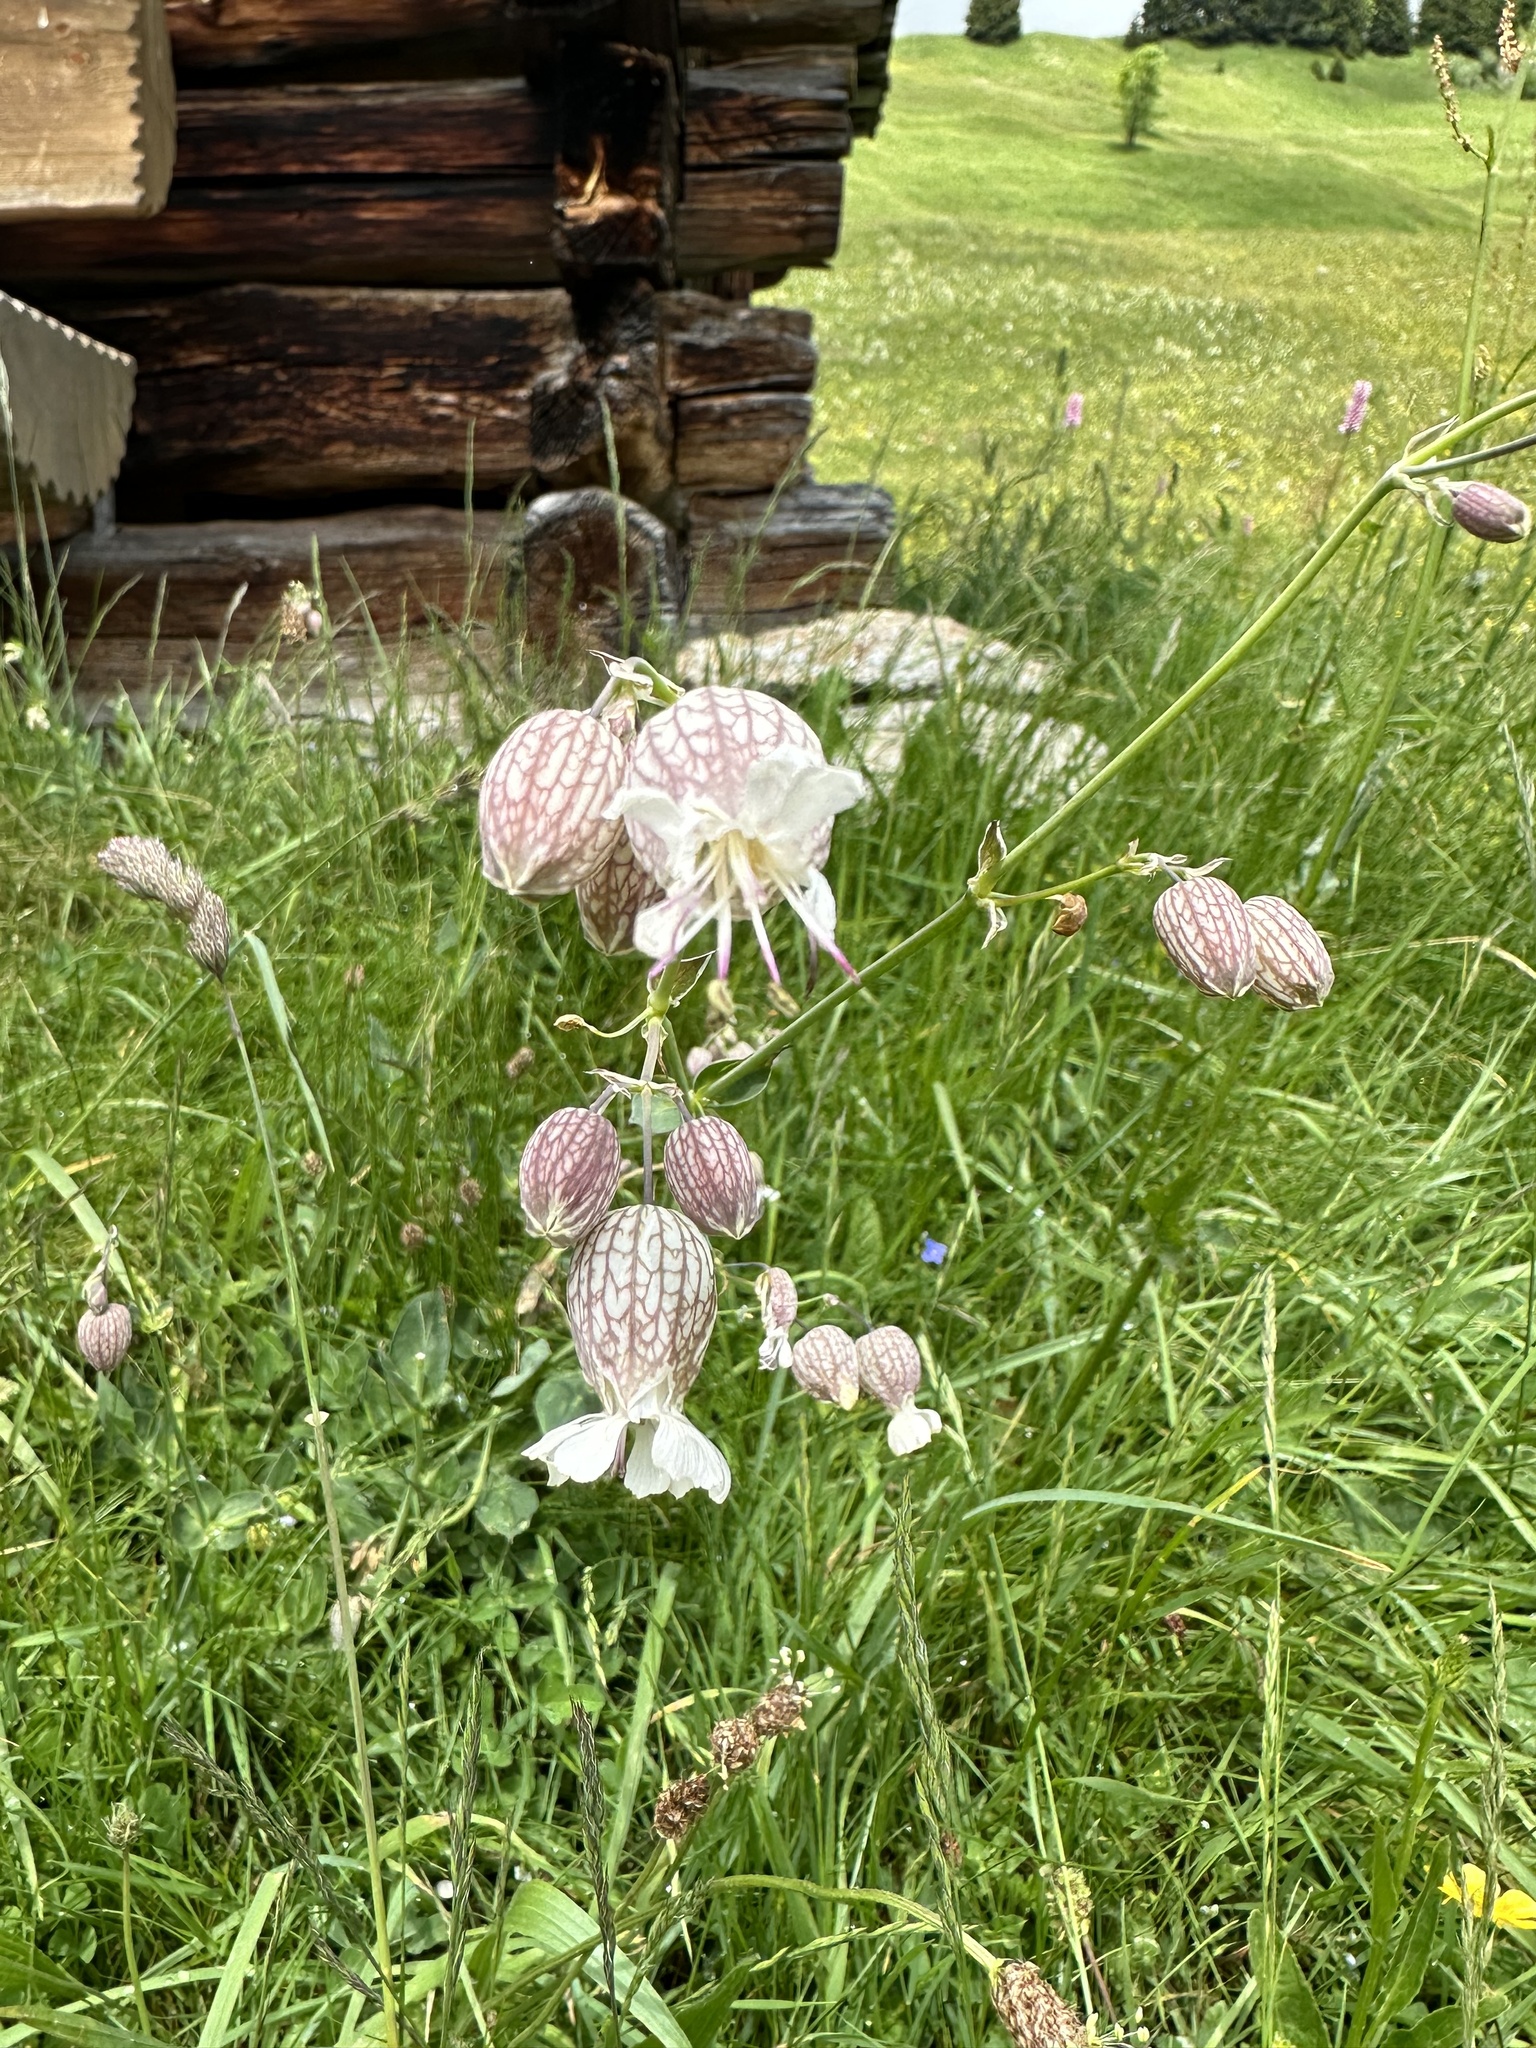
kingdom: Plantae
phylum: Tracheophyta
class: Magnoliopsida
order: Caryophyllales
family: Caryophyllaceae
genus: Silene
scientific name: Silene vulgaris
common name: Bladder campion
